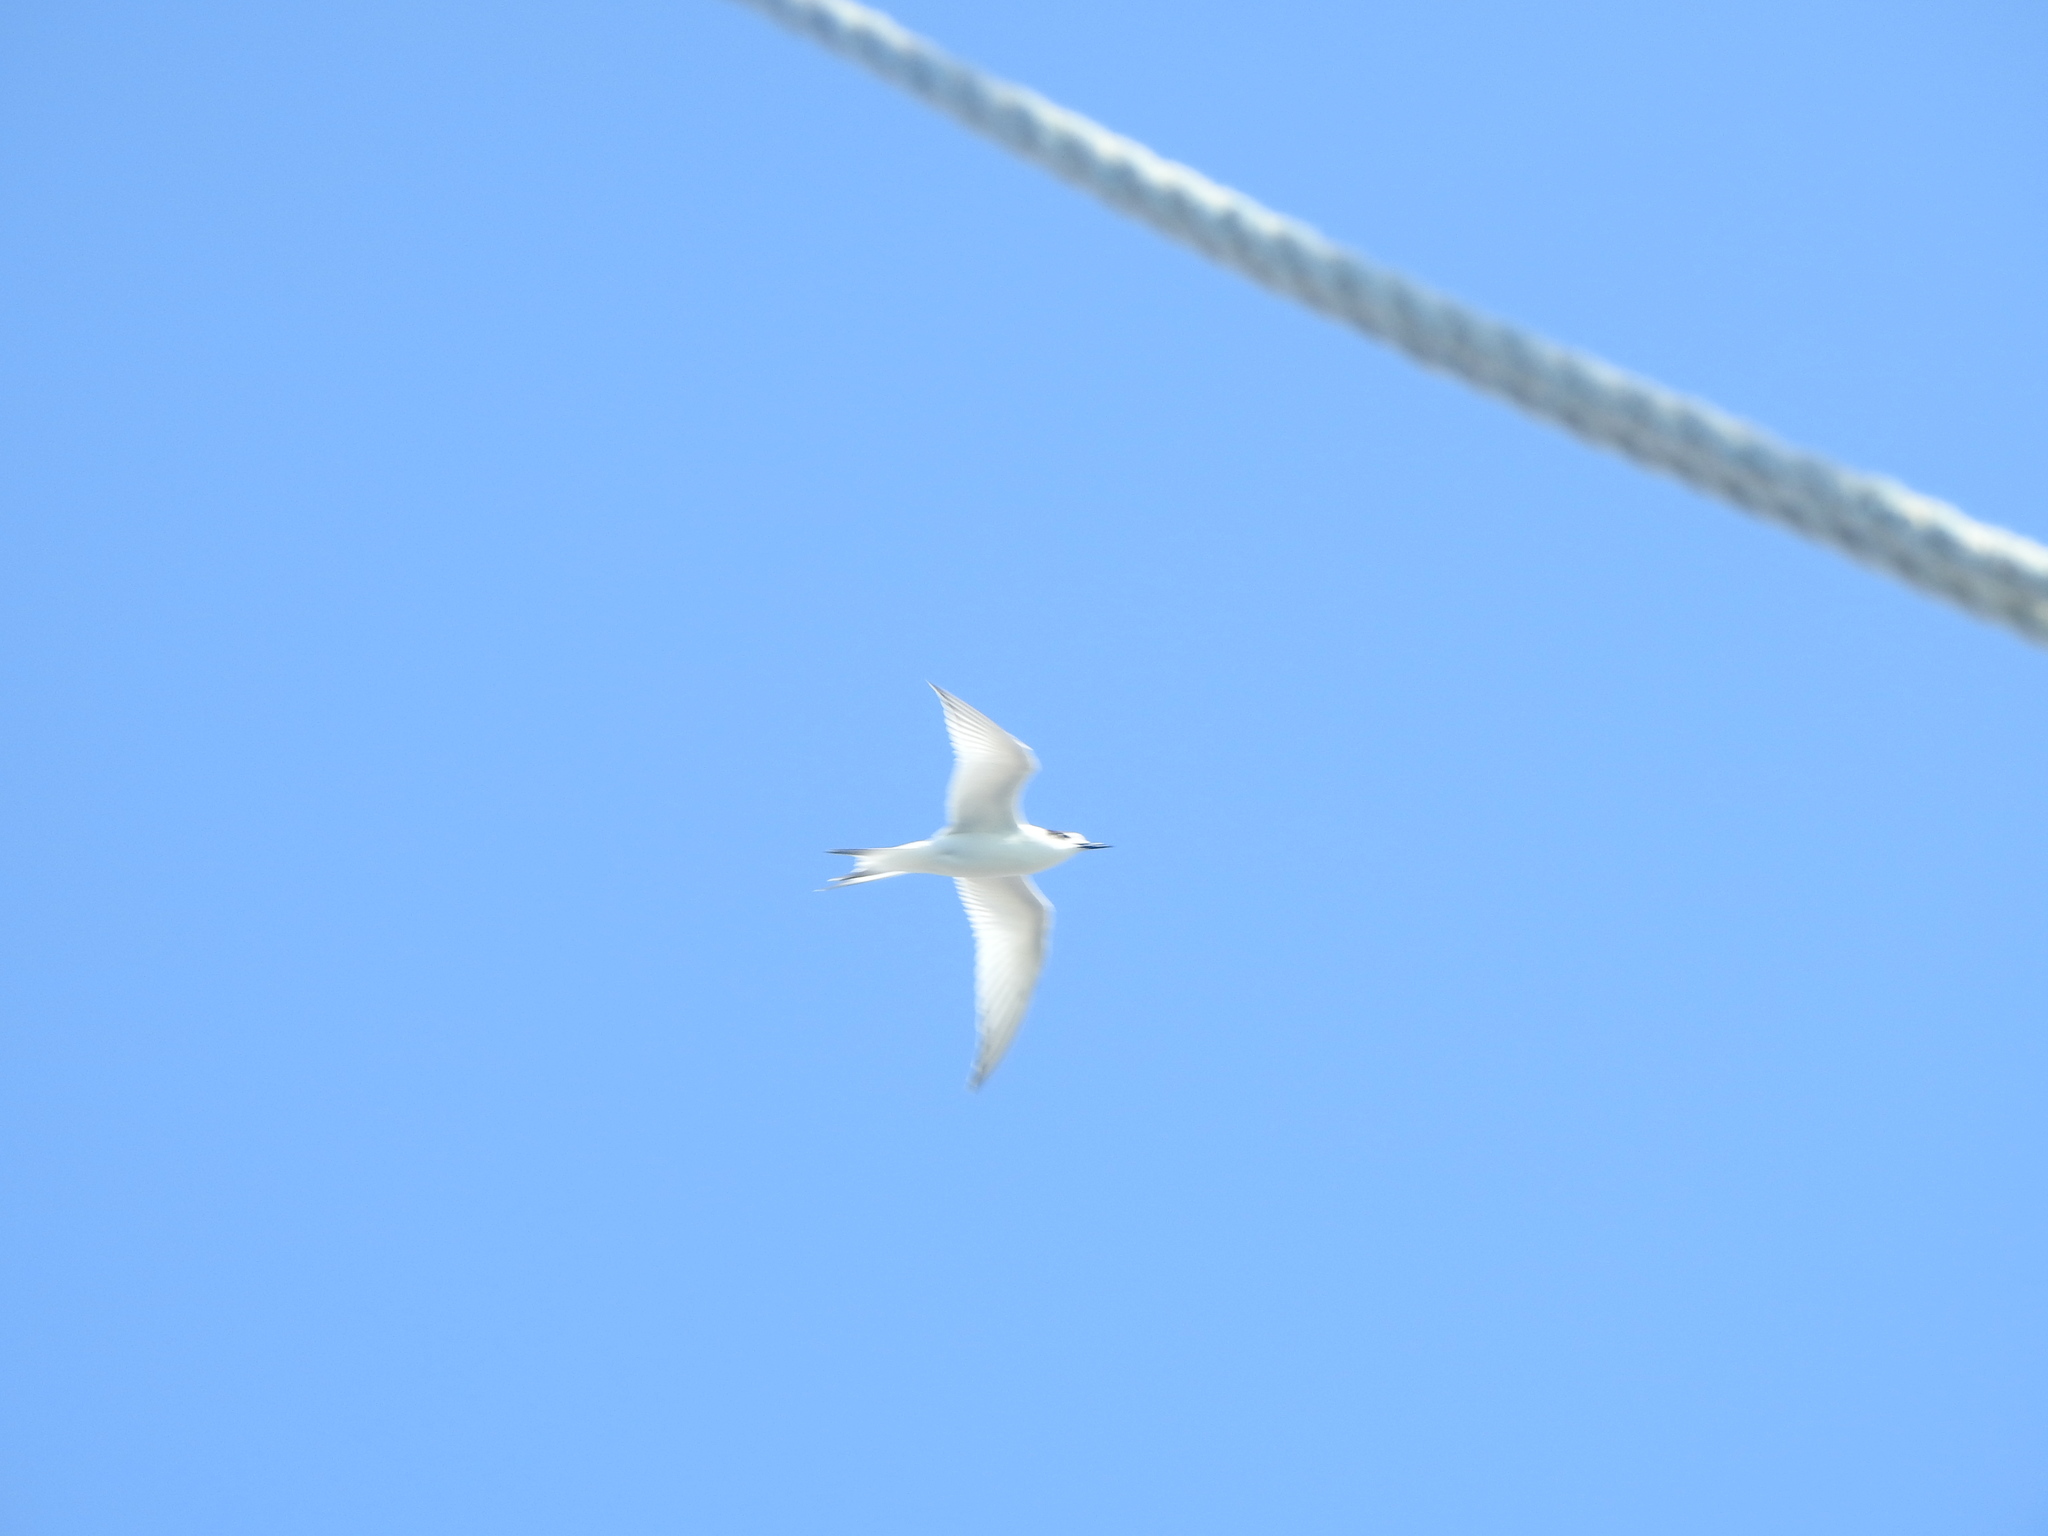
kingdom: Animalia
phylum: Chordata
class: Aves
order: Charadriiformes
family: Laridae
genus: Sterna
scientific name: Sterna striata
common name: White-fronted tern
